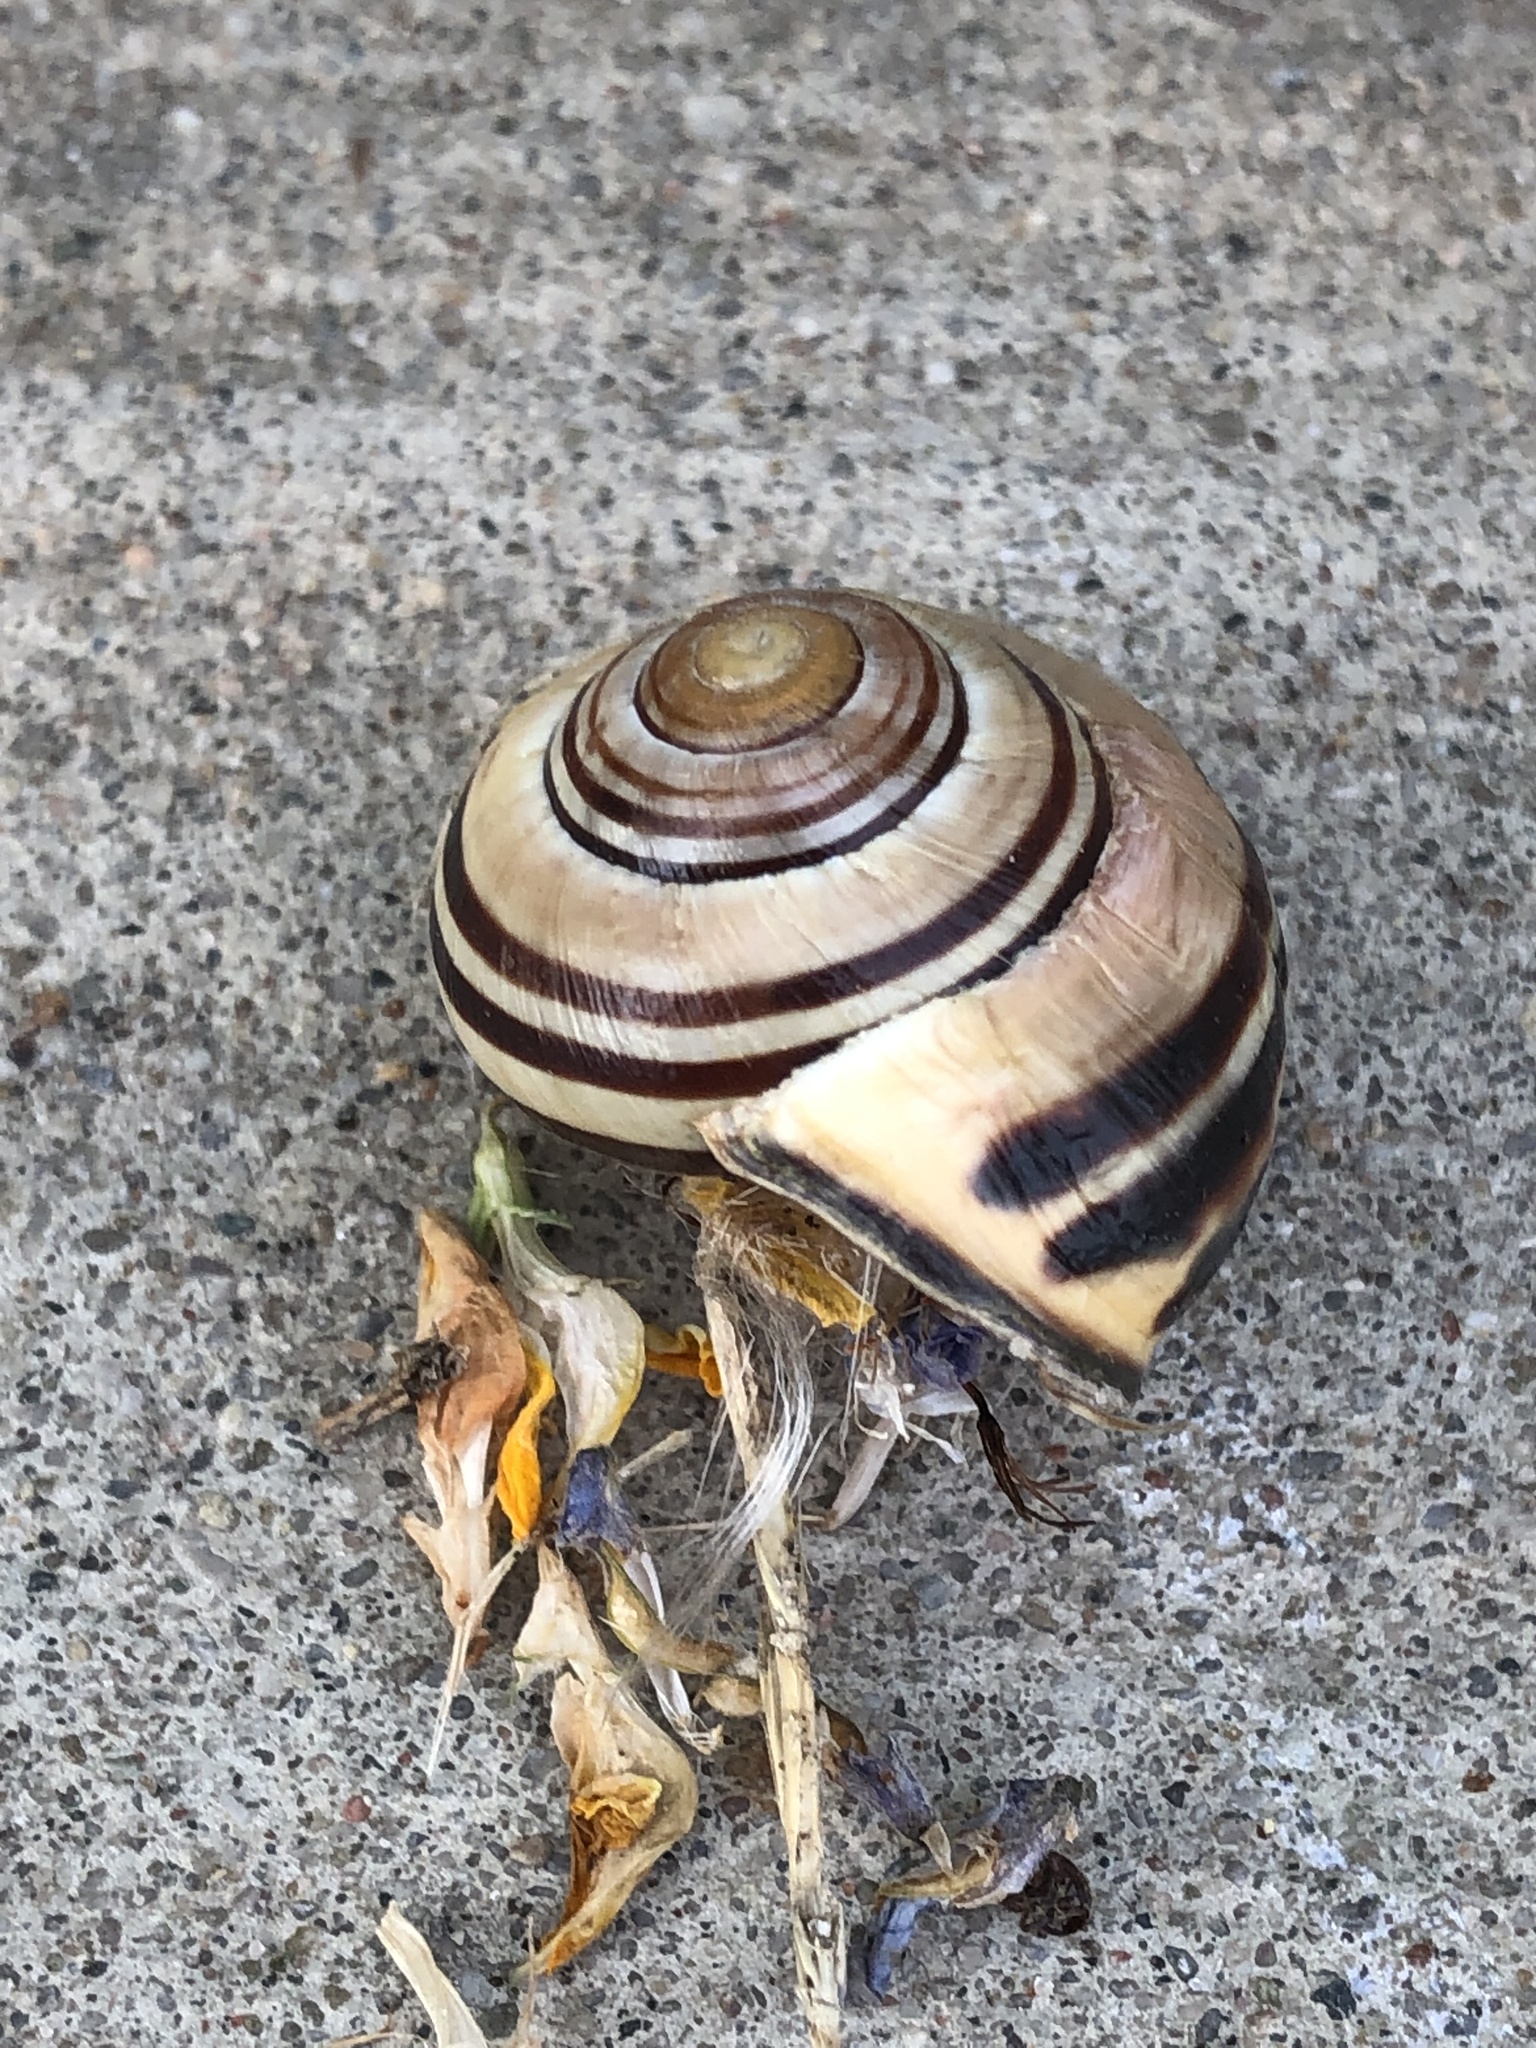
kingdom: Animalia
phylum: Mollusca
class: Gastropoda
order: Stylommatophora
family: Helicidae
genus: Cepaea
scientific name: Cepaea nemoralis
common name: Grovesnail
